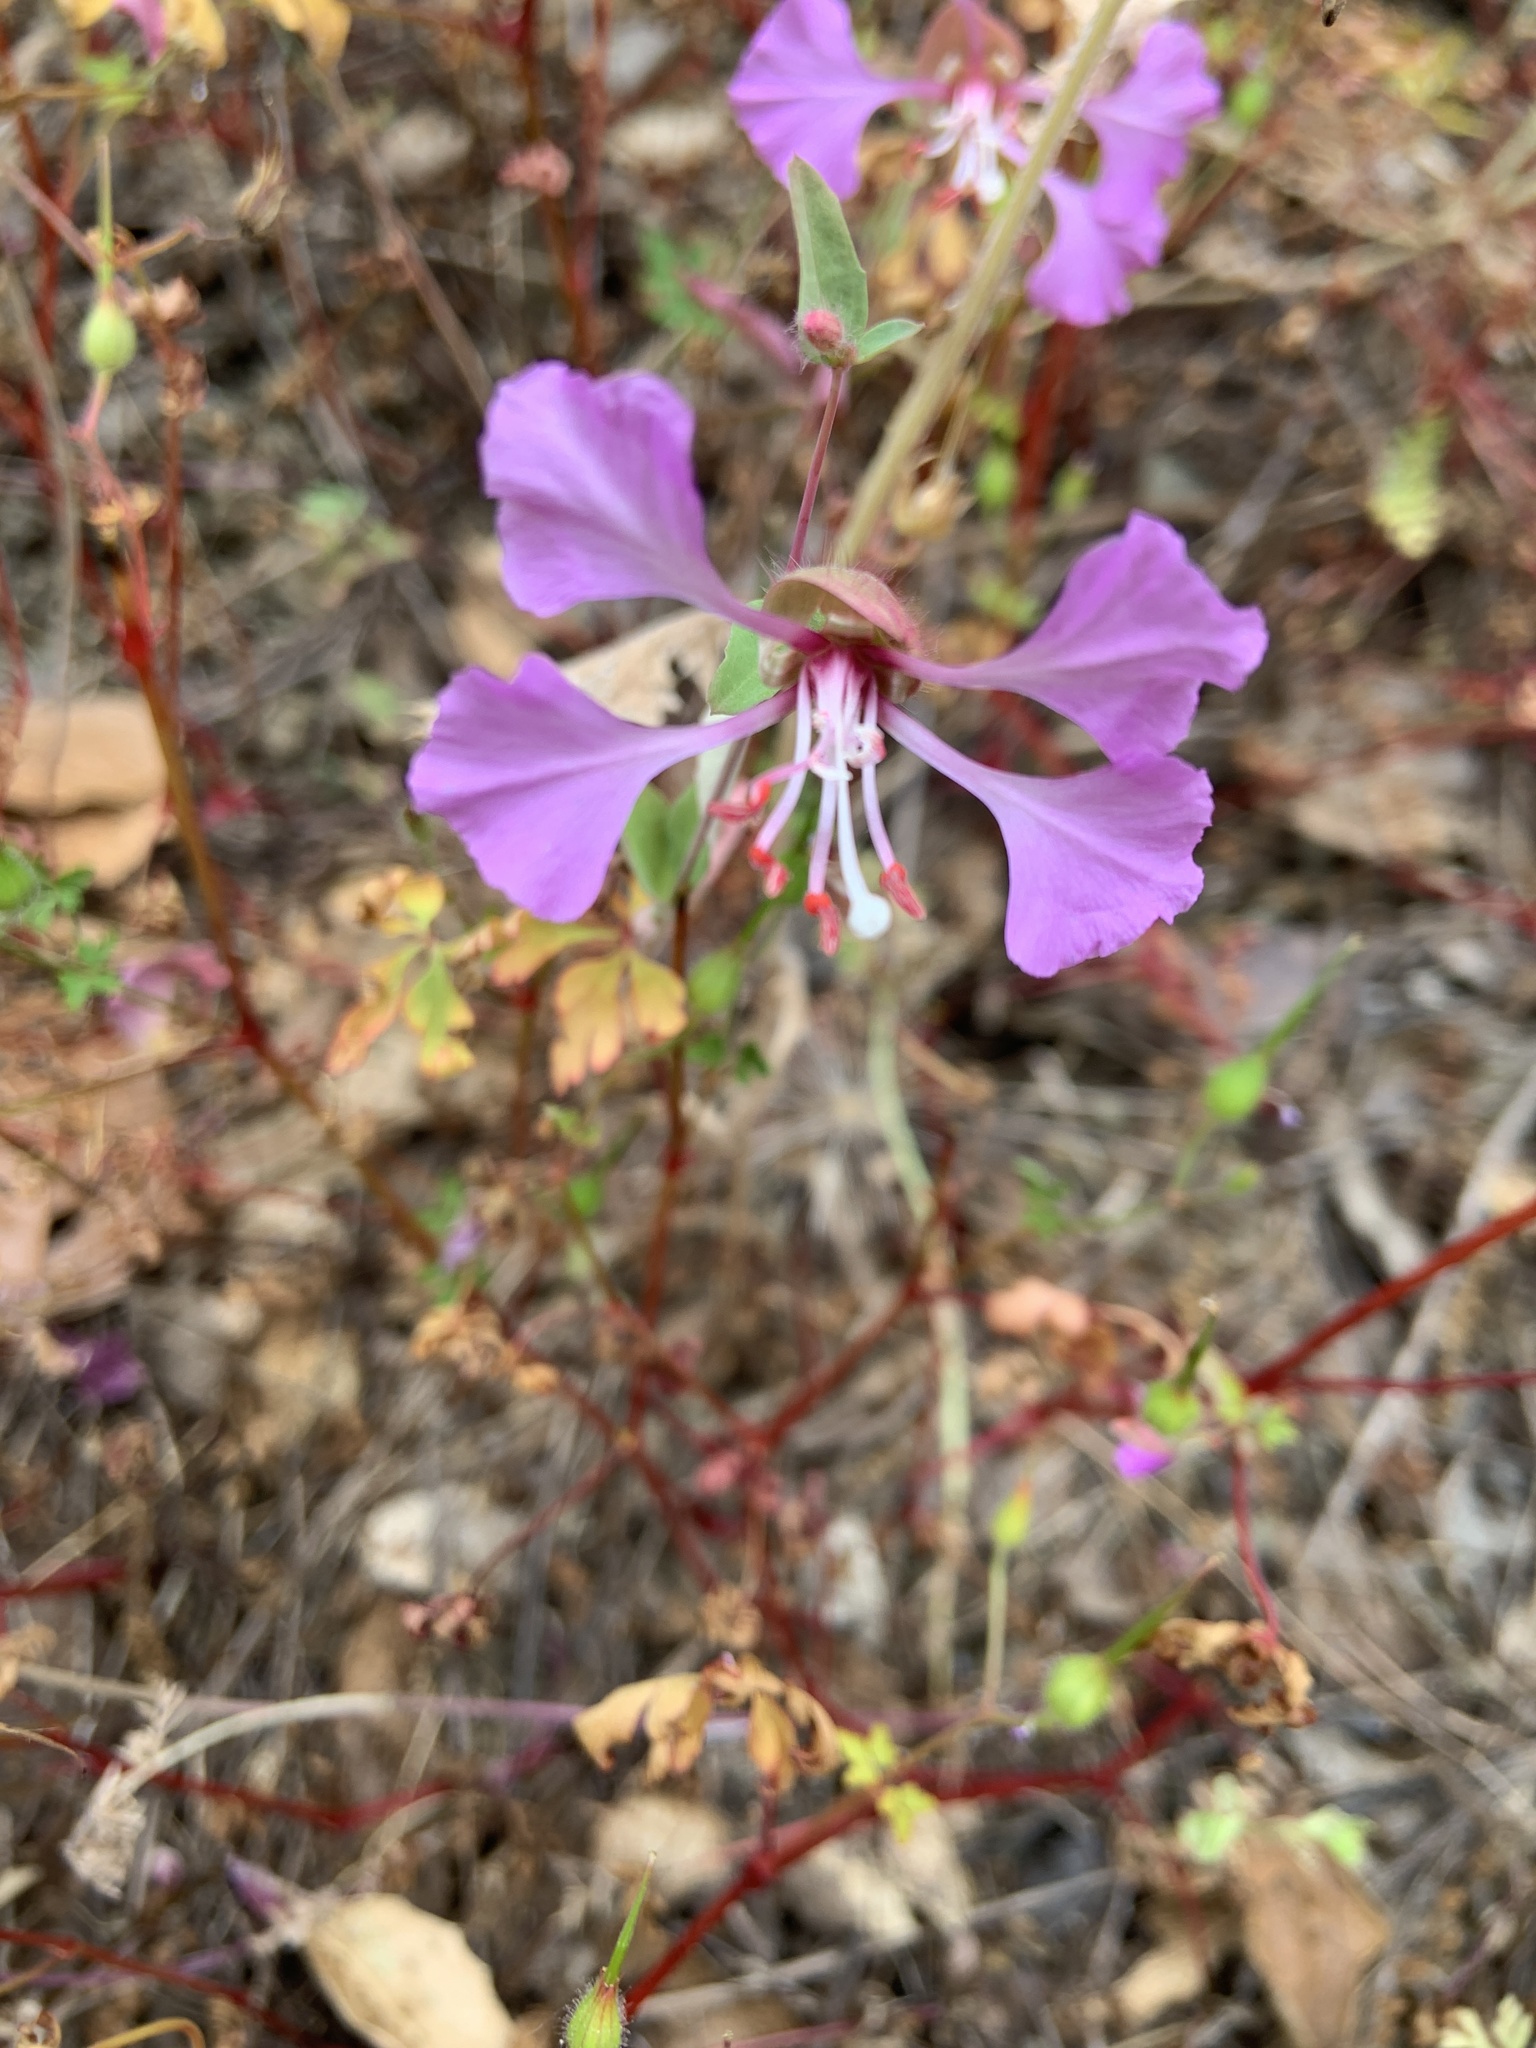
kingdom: Plantae
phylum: Tracheophyta
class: Magnoliopsida
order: Myrtales
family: Onagraceae
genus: Clarkia
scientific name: Clarkia unguiculata
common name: Clarkia
